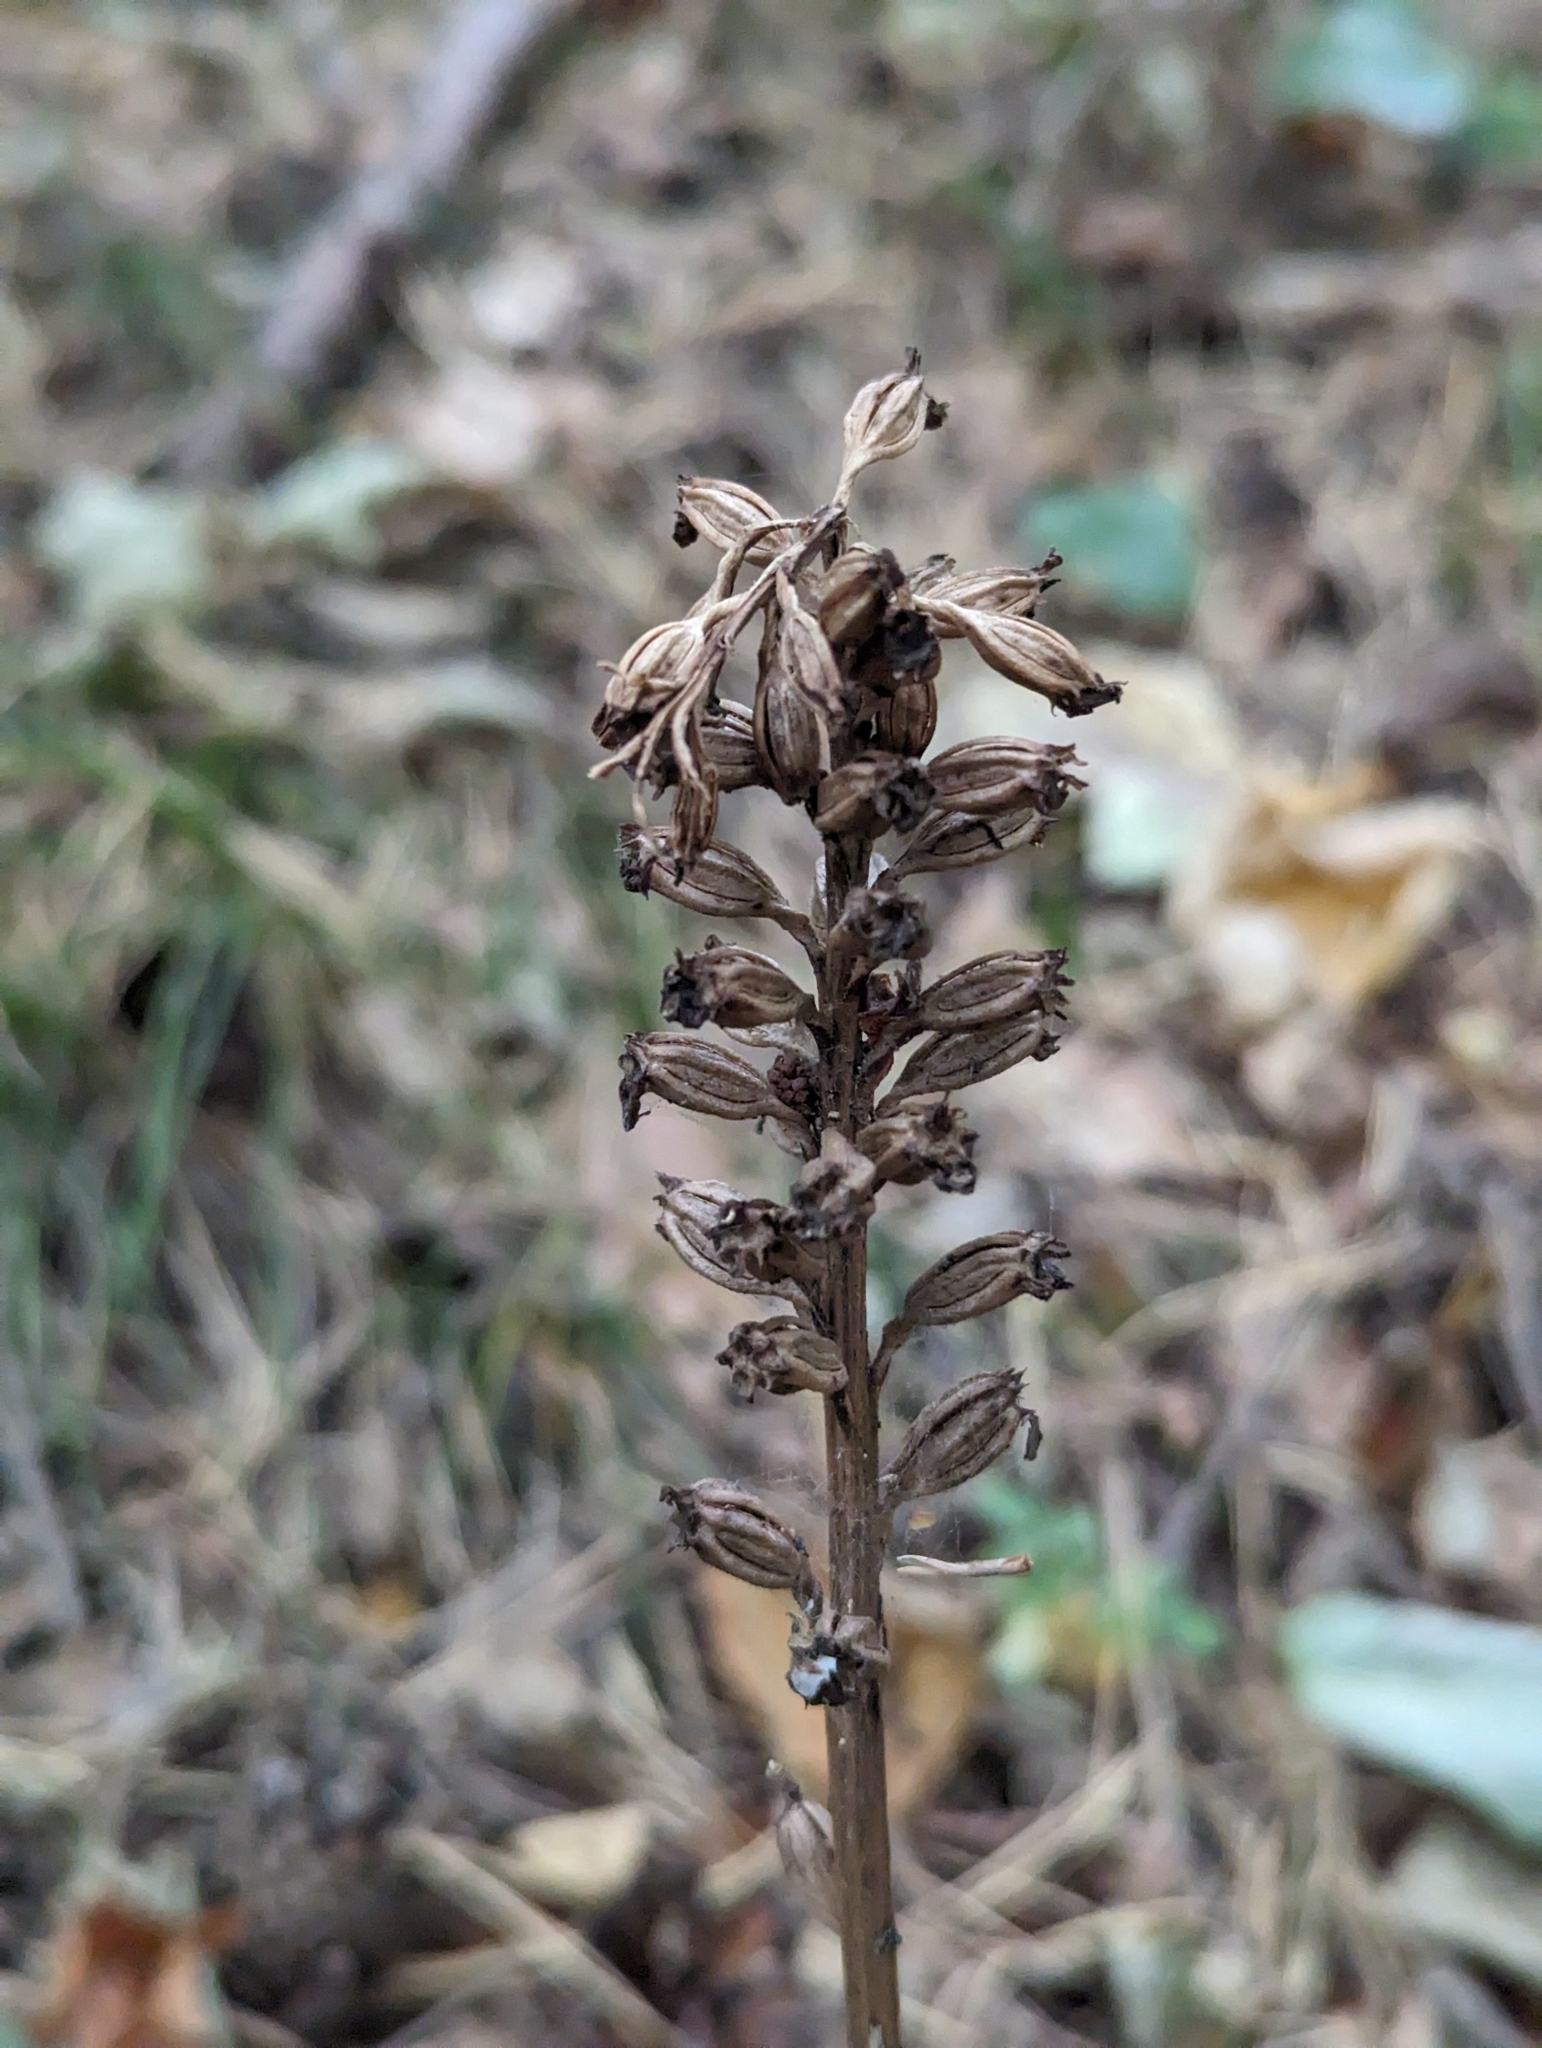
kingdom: Plantae
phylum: Tracheophyta
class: Liliopsida
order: Asparagales
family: Orchidaceae
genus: Neottia
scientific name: Neottia nidus-avis
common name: Bird's-nest orchid
